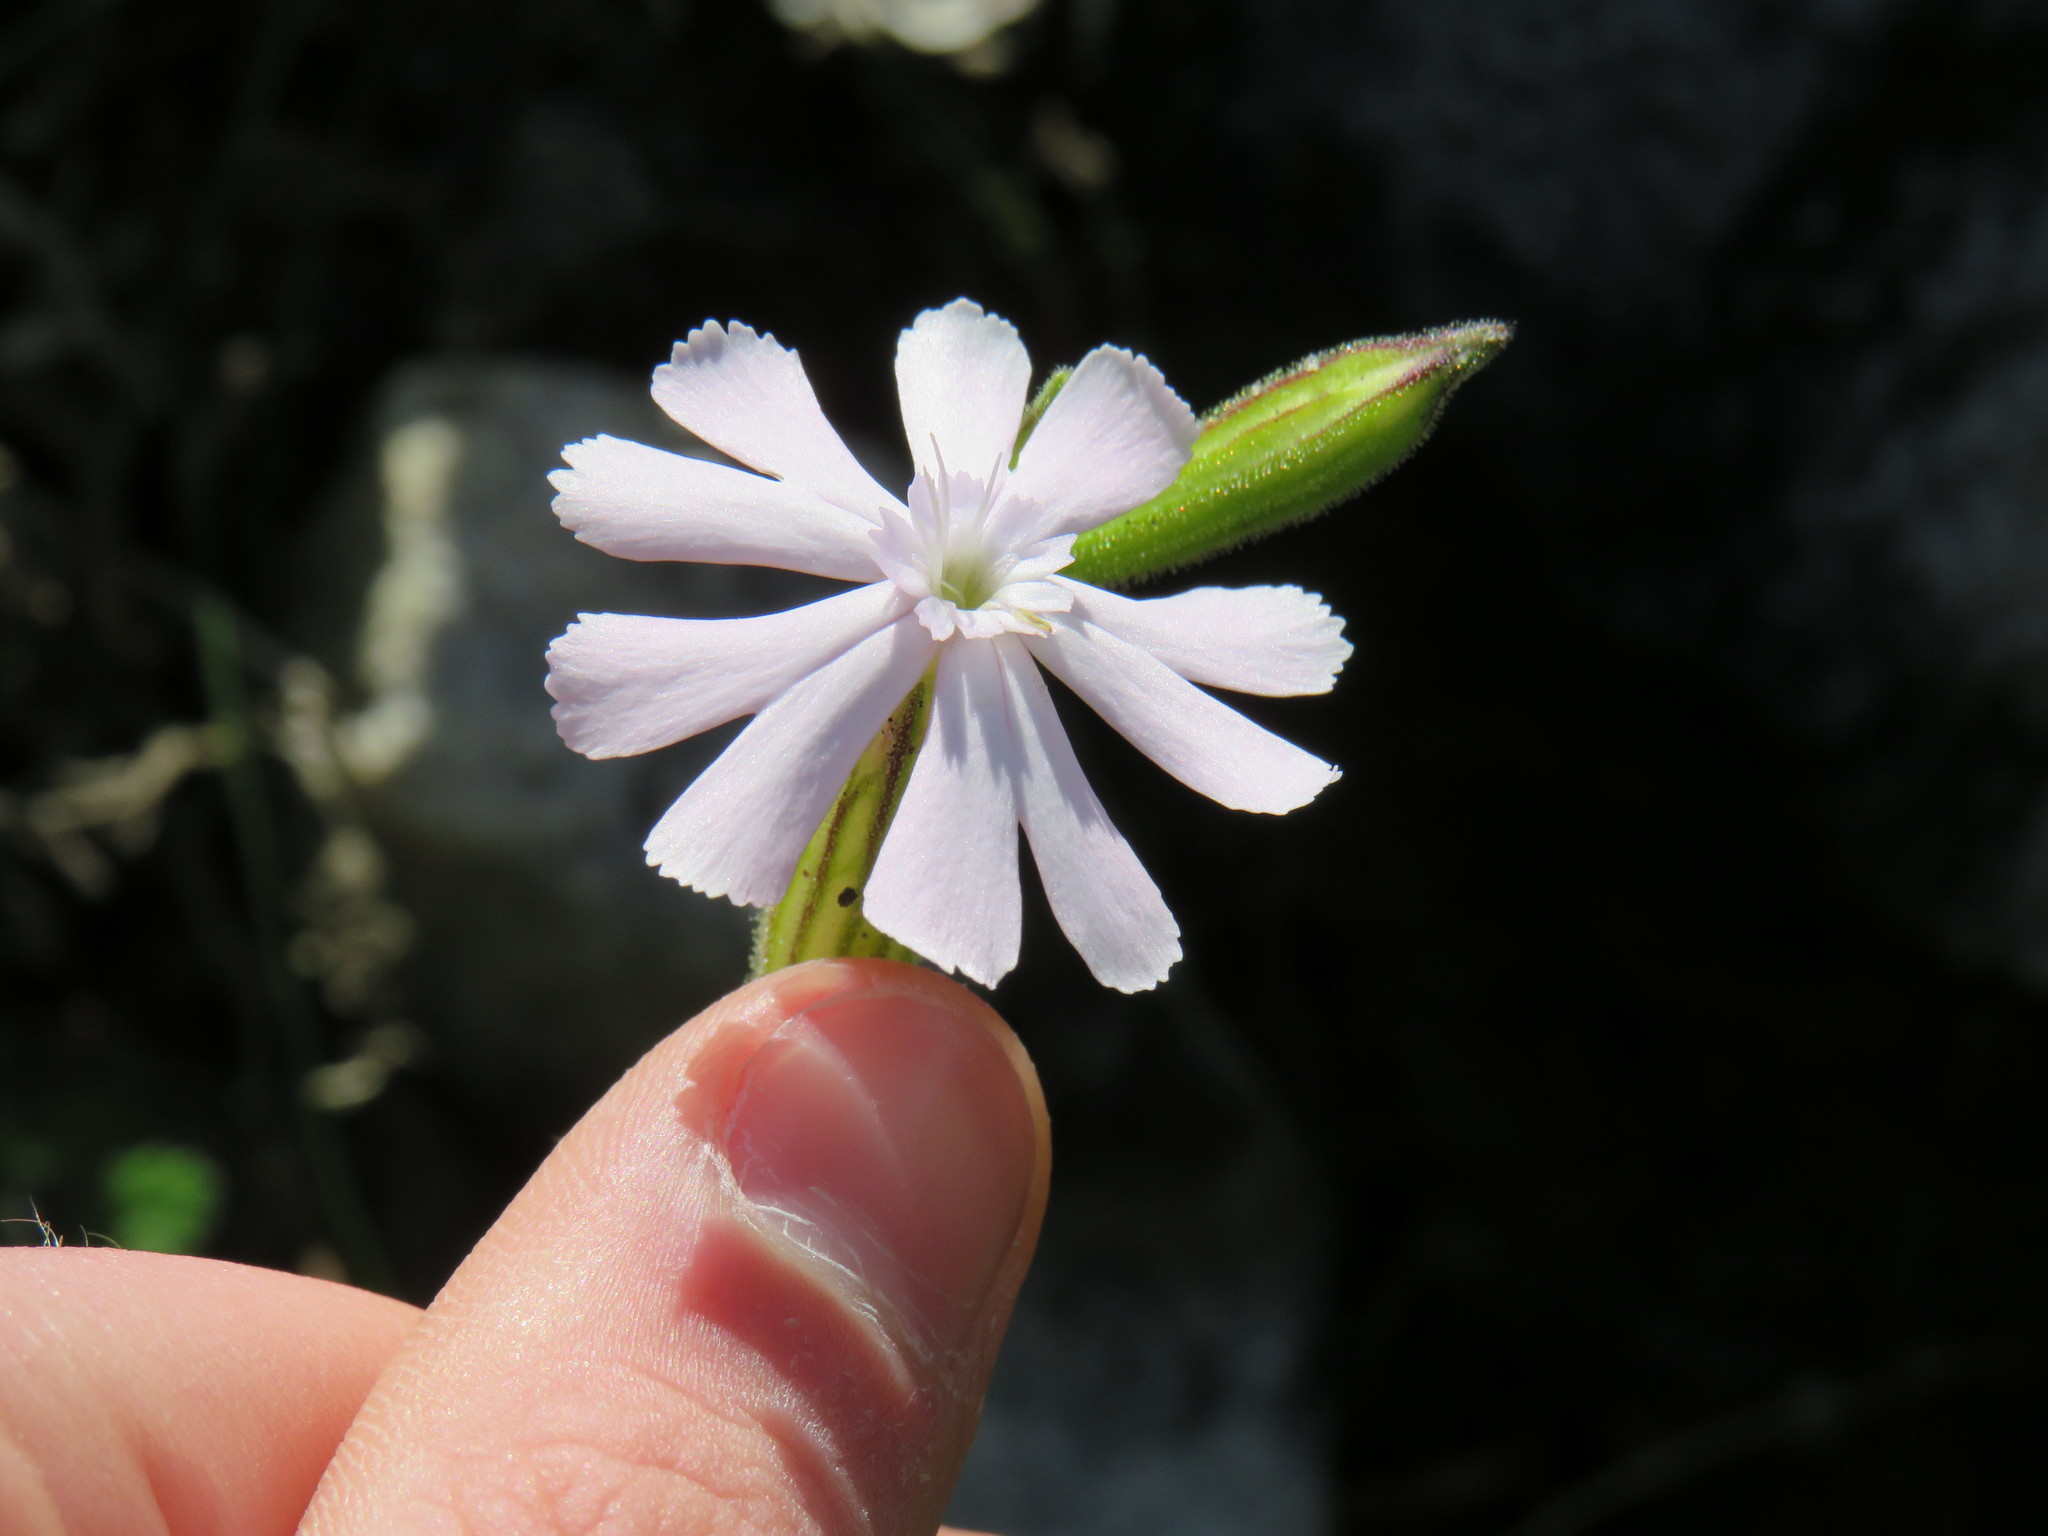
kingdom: Plantae
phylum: Tracheophyta
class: Magnoliopsida
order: Caryophyllales
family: Caryophyllaceae
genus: Silene
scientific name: Silene undulata
